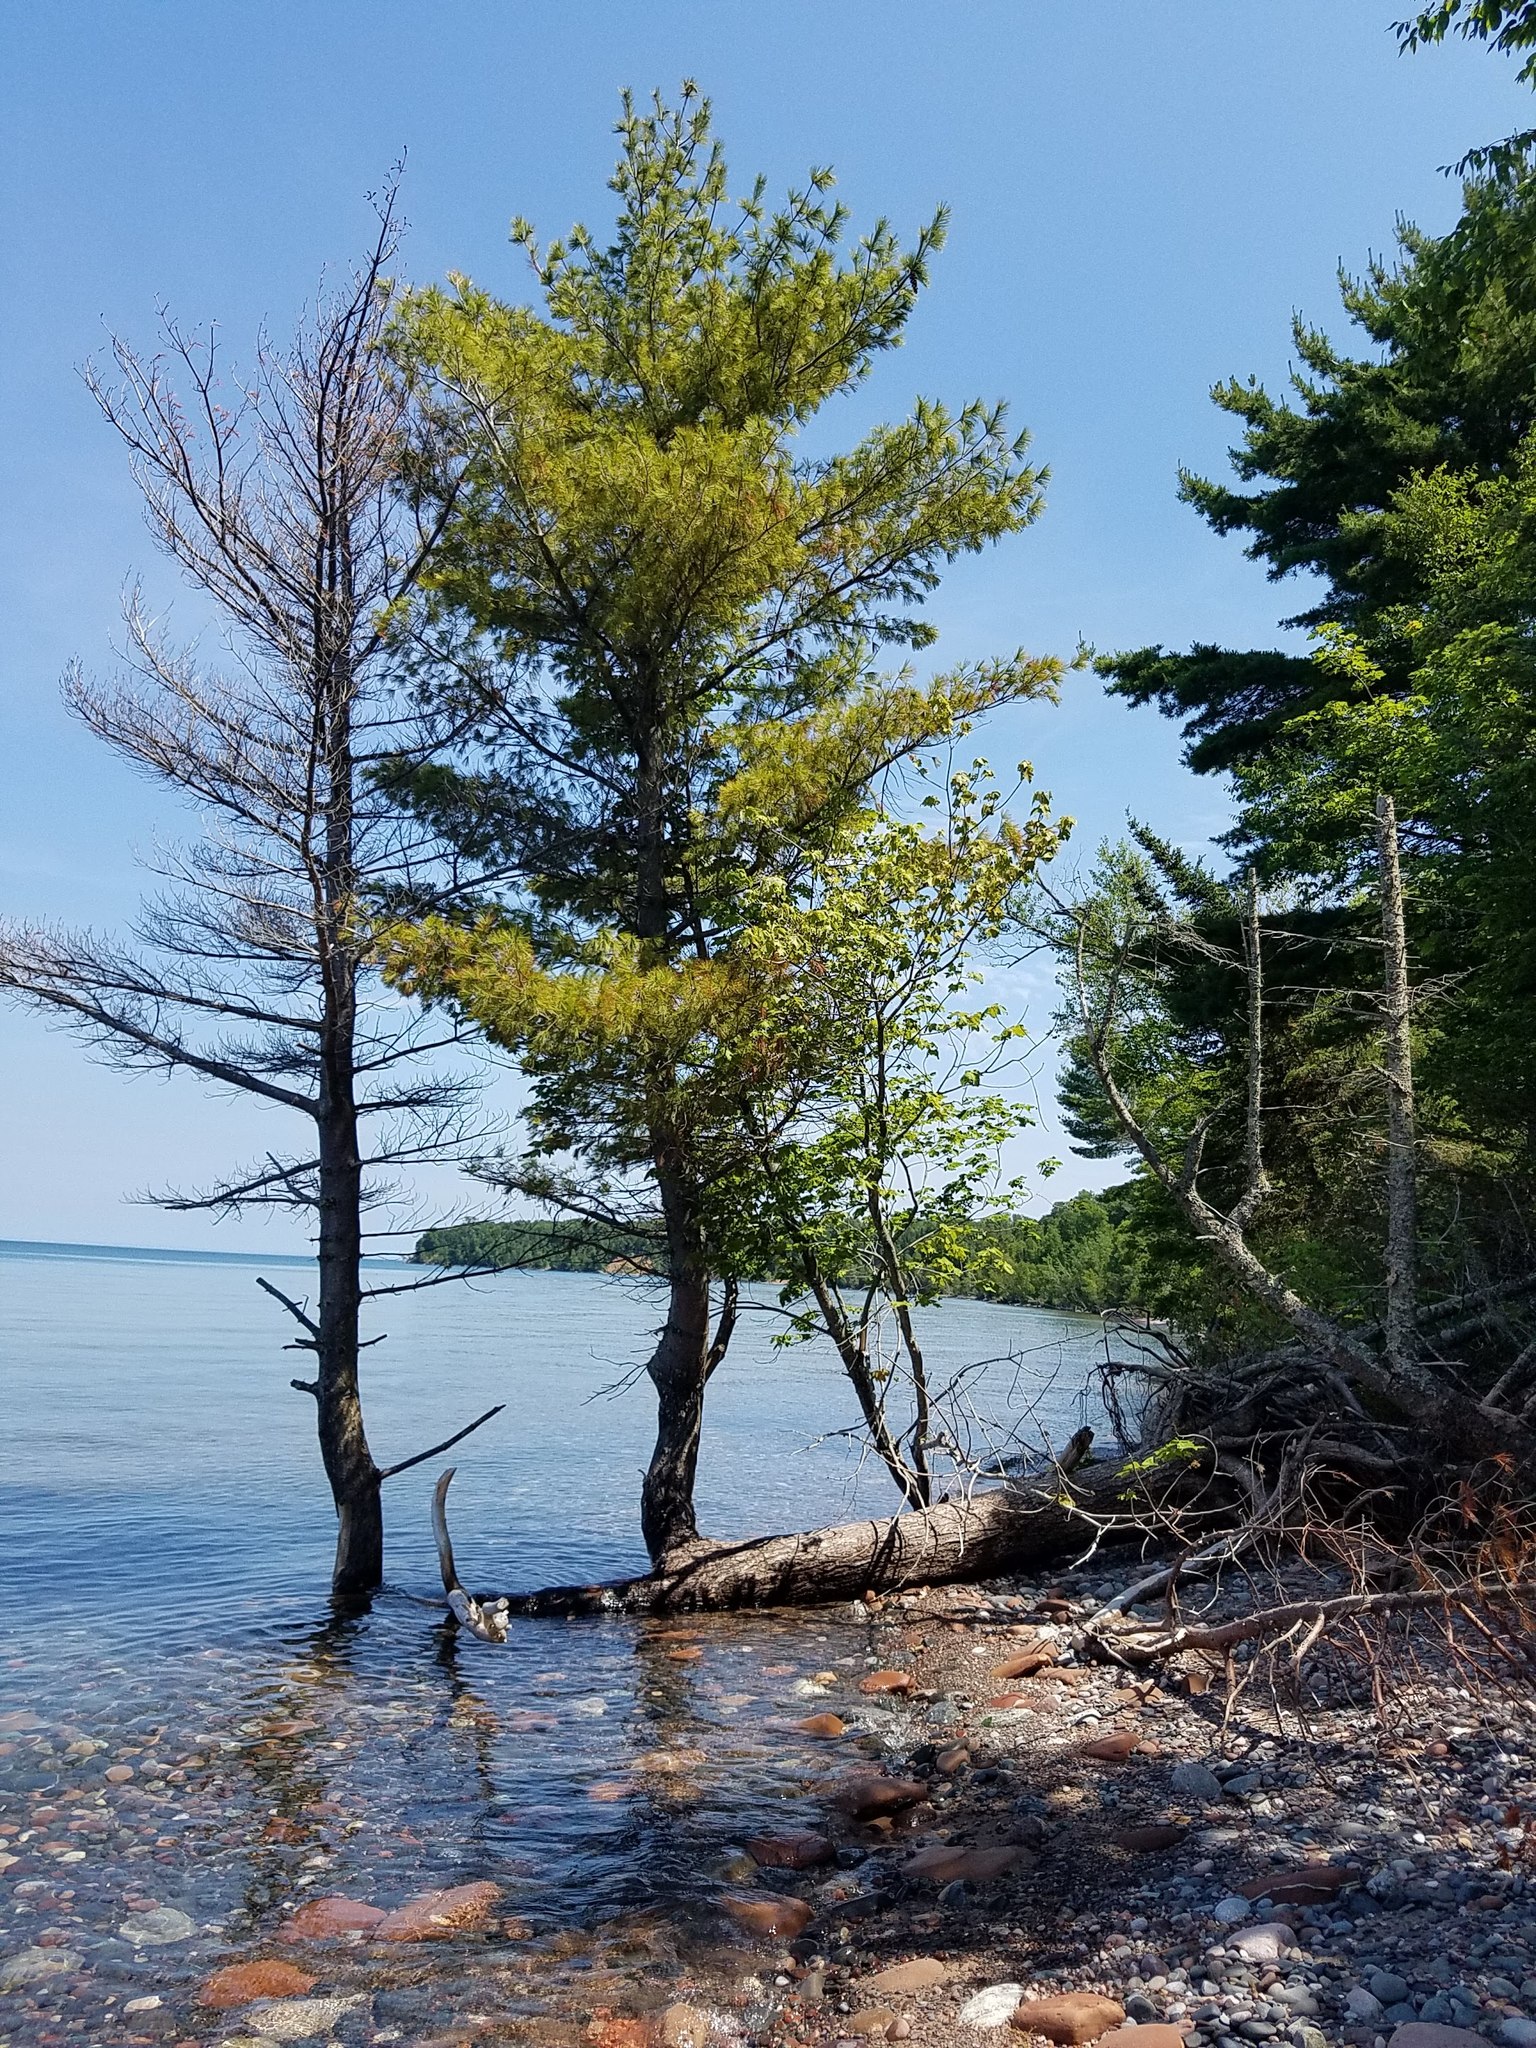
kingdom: Plantae
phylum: Tracheophyta
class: Pinopsida
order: Pinales
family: Pinaceae
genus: Pinus
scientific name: Pinus strobus
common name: Weymouth pine
